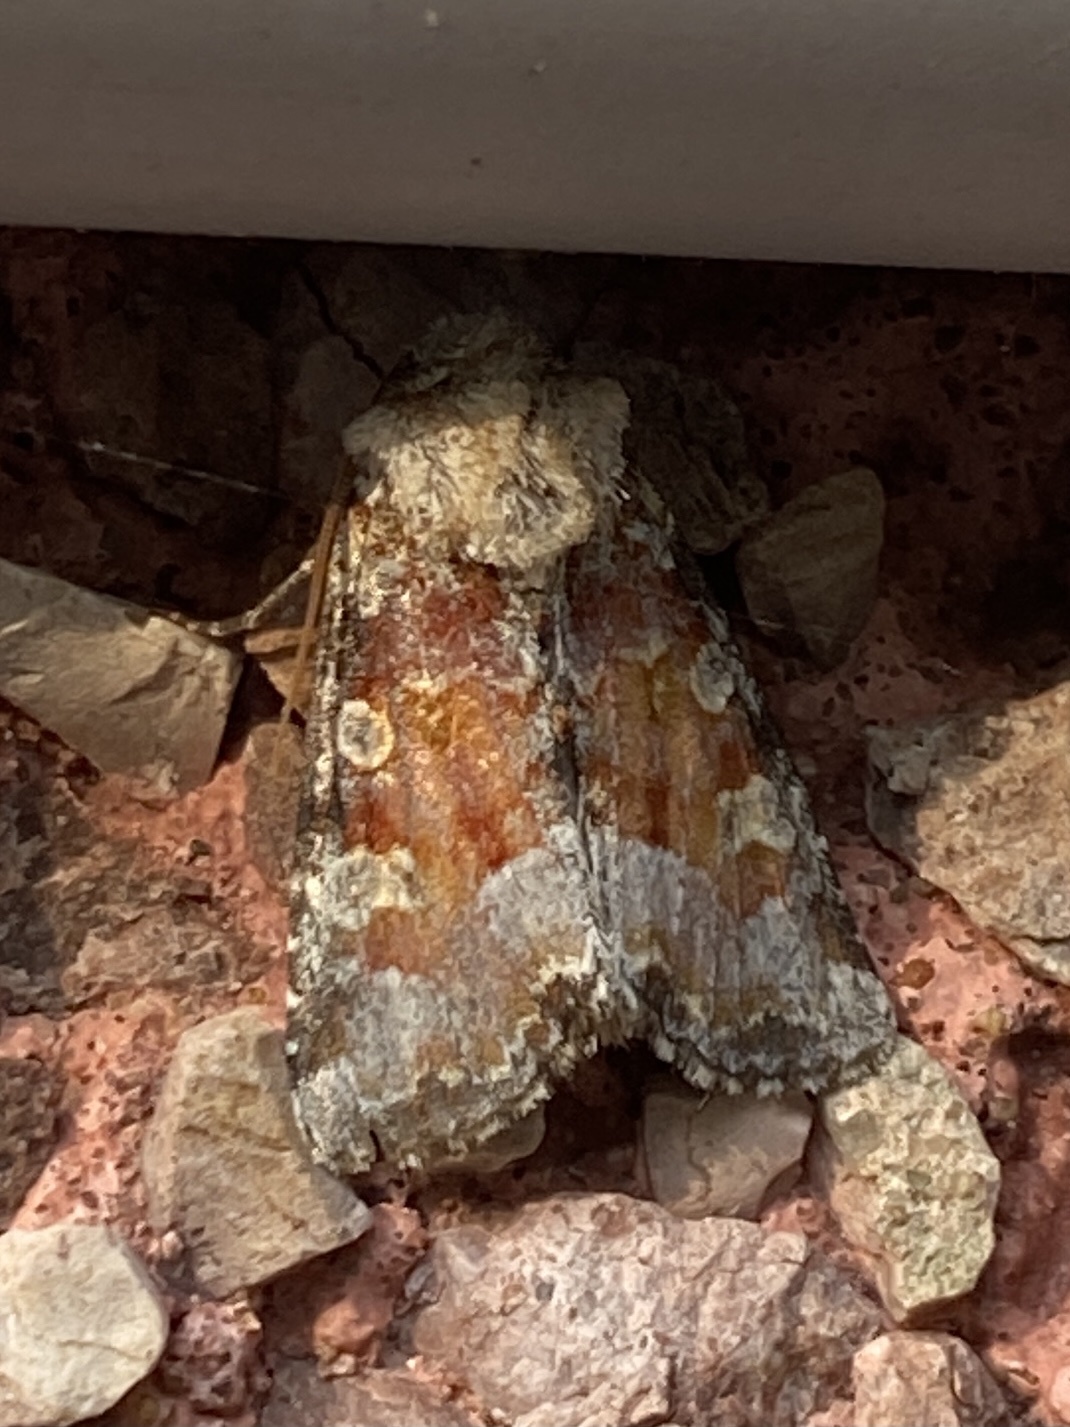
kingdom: Animalia
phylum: Arthropoda
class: Insecta
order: Lepidoptera
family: Noctuidae
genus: Oligia
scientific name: Oligia bridghamii
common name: Bridgham's brocade moth
